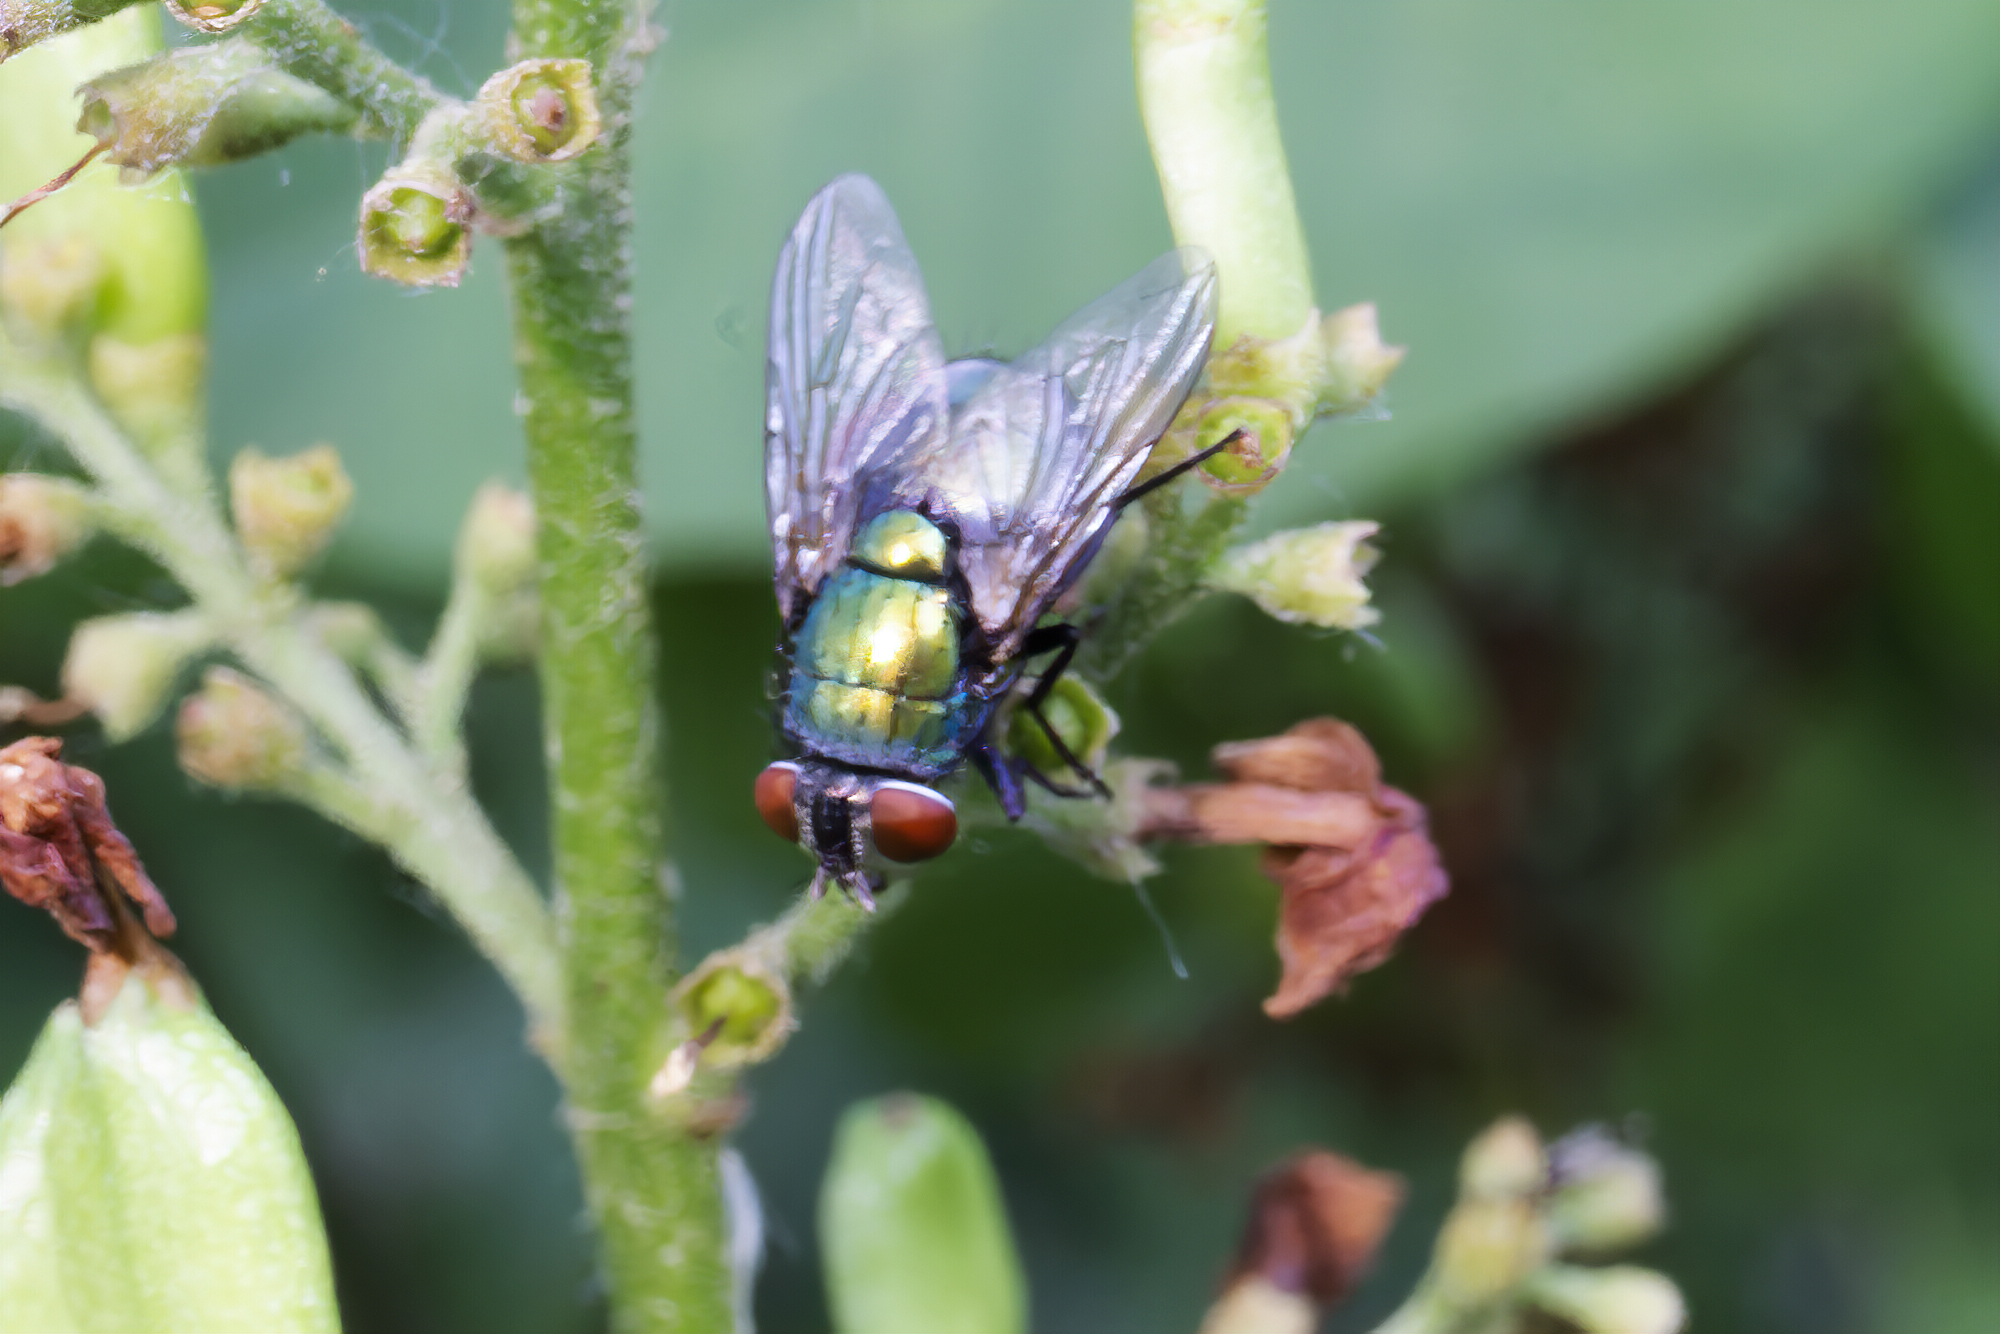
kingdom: Animalia
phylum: Arthropoda
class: Insecta
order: Diptera
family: Calliphoridae
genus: Lucilia
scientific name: Lucilia sericata
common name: Blow fly
